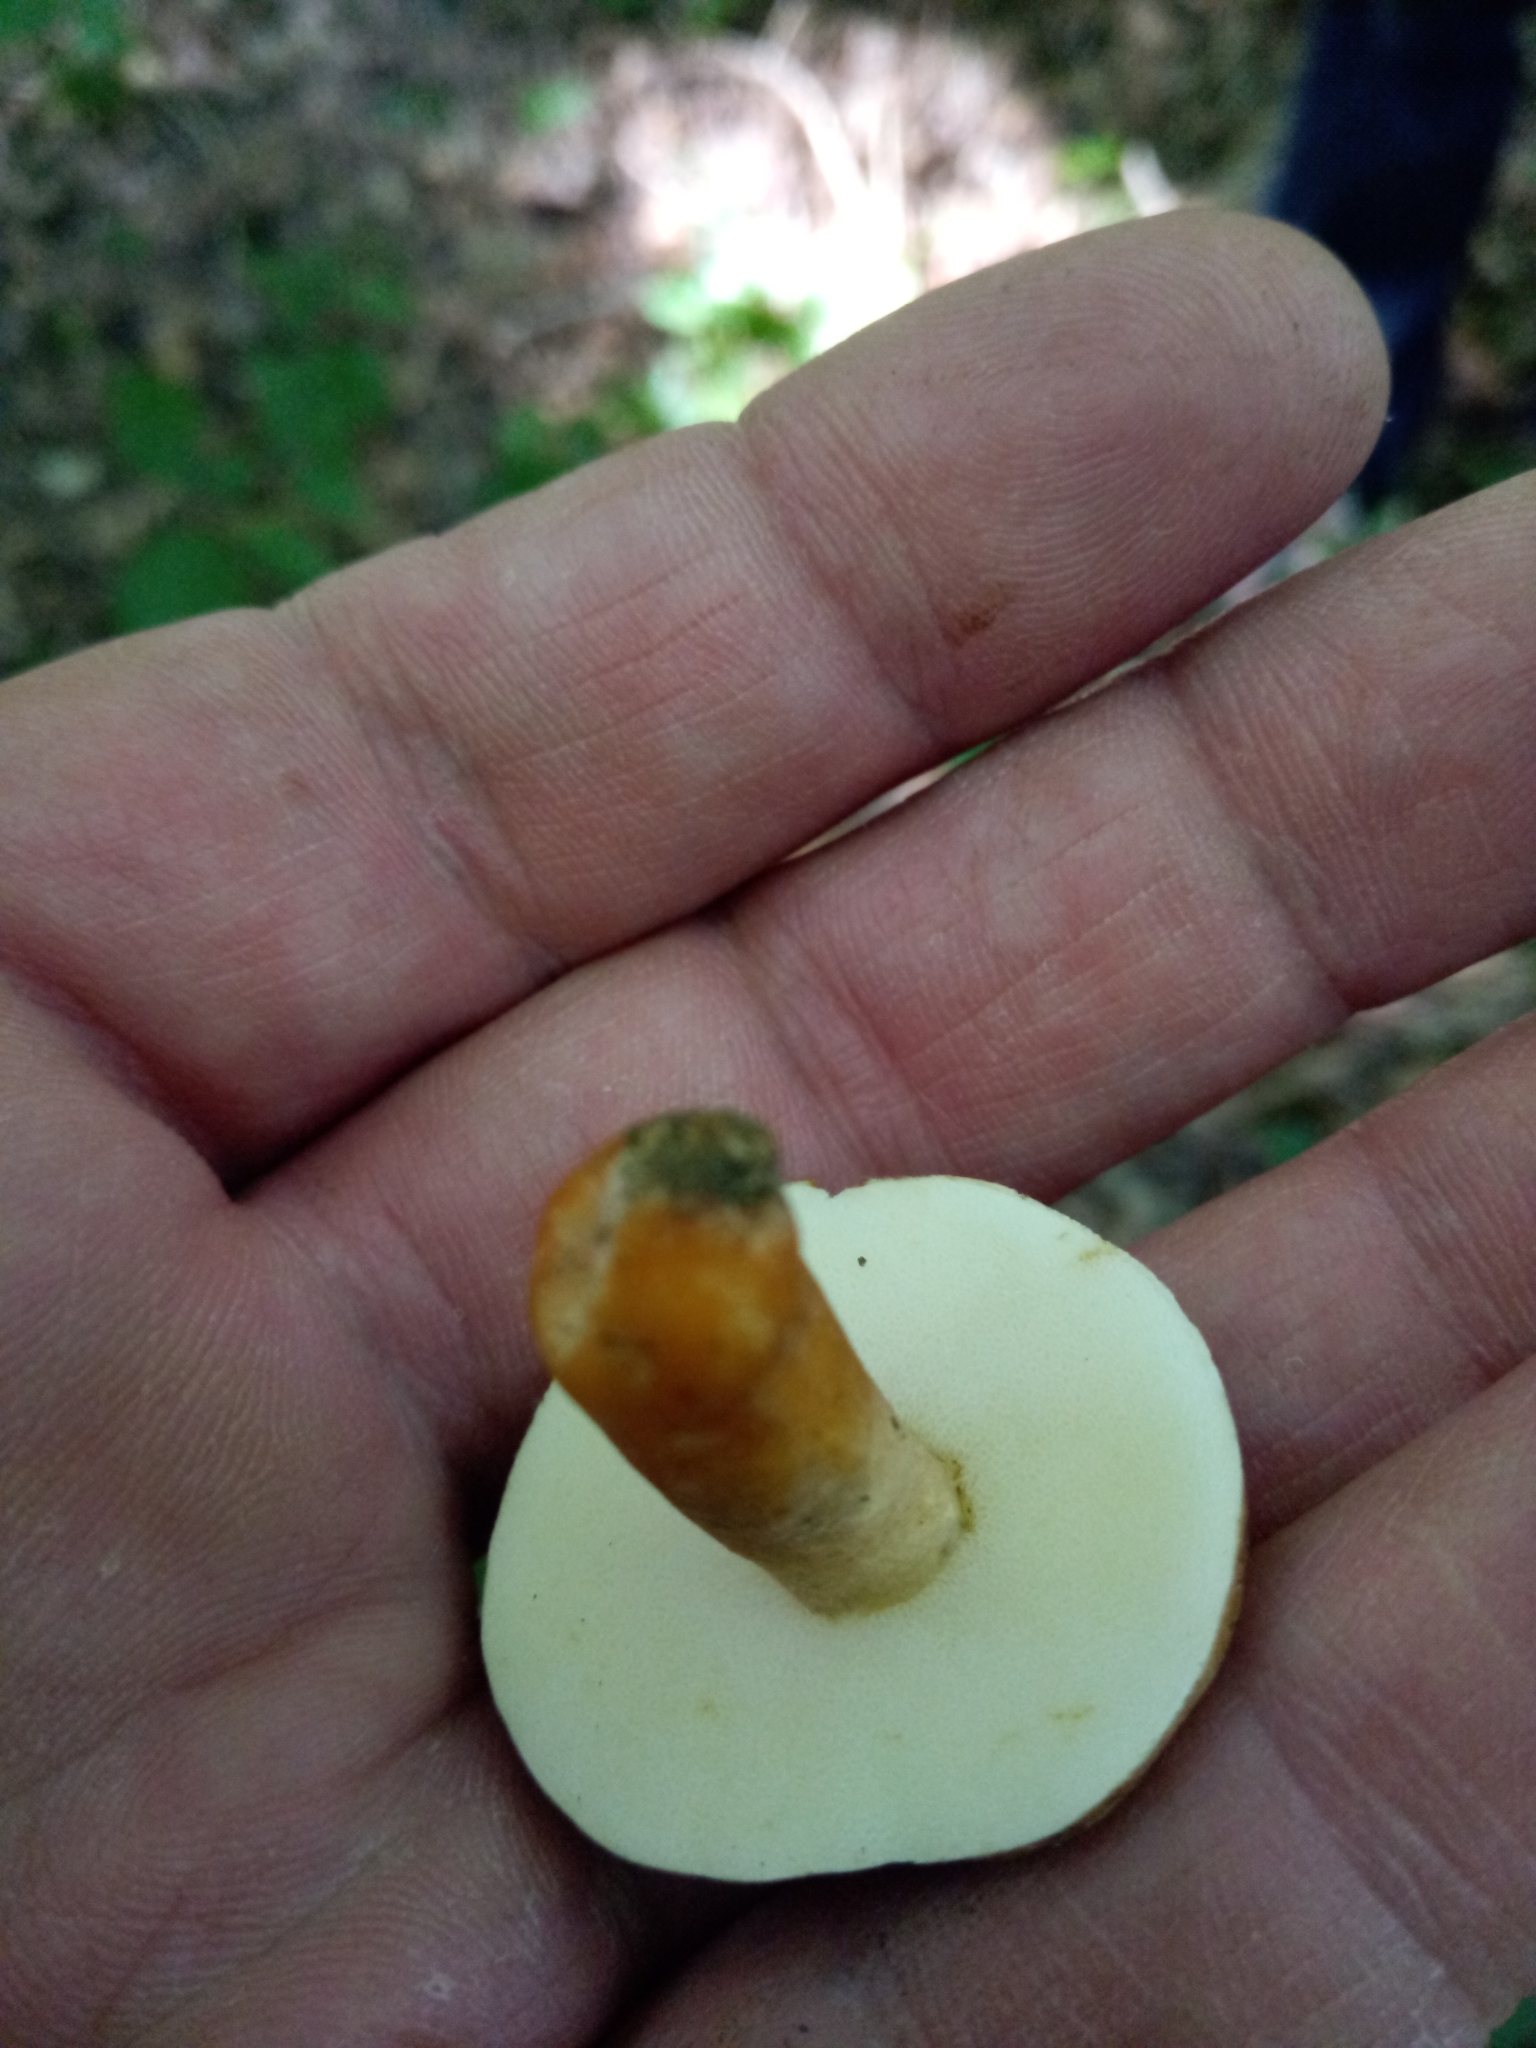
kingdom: Fungi
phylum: Basidiomycota
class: Agaricomycetes
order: Boletales
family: Gyroporaceae
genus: Gyroporus
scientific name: Gyroporus borealis
